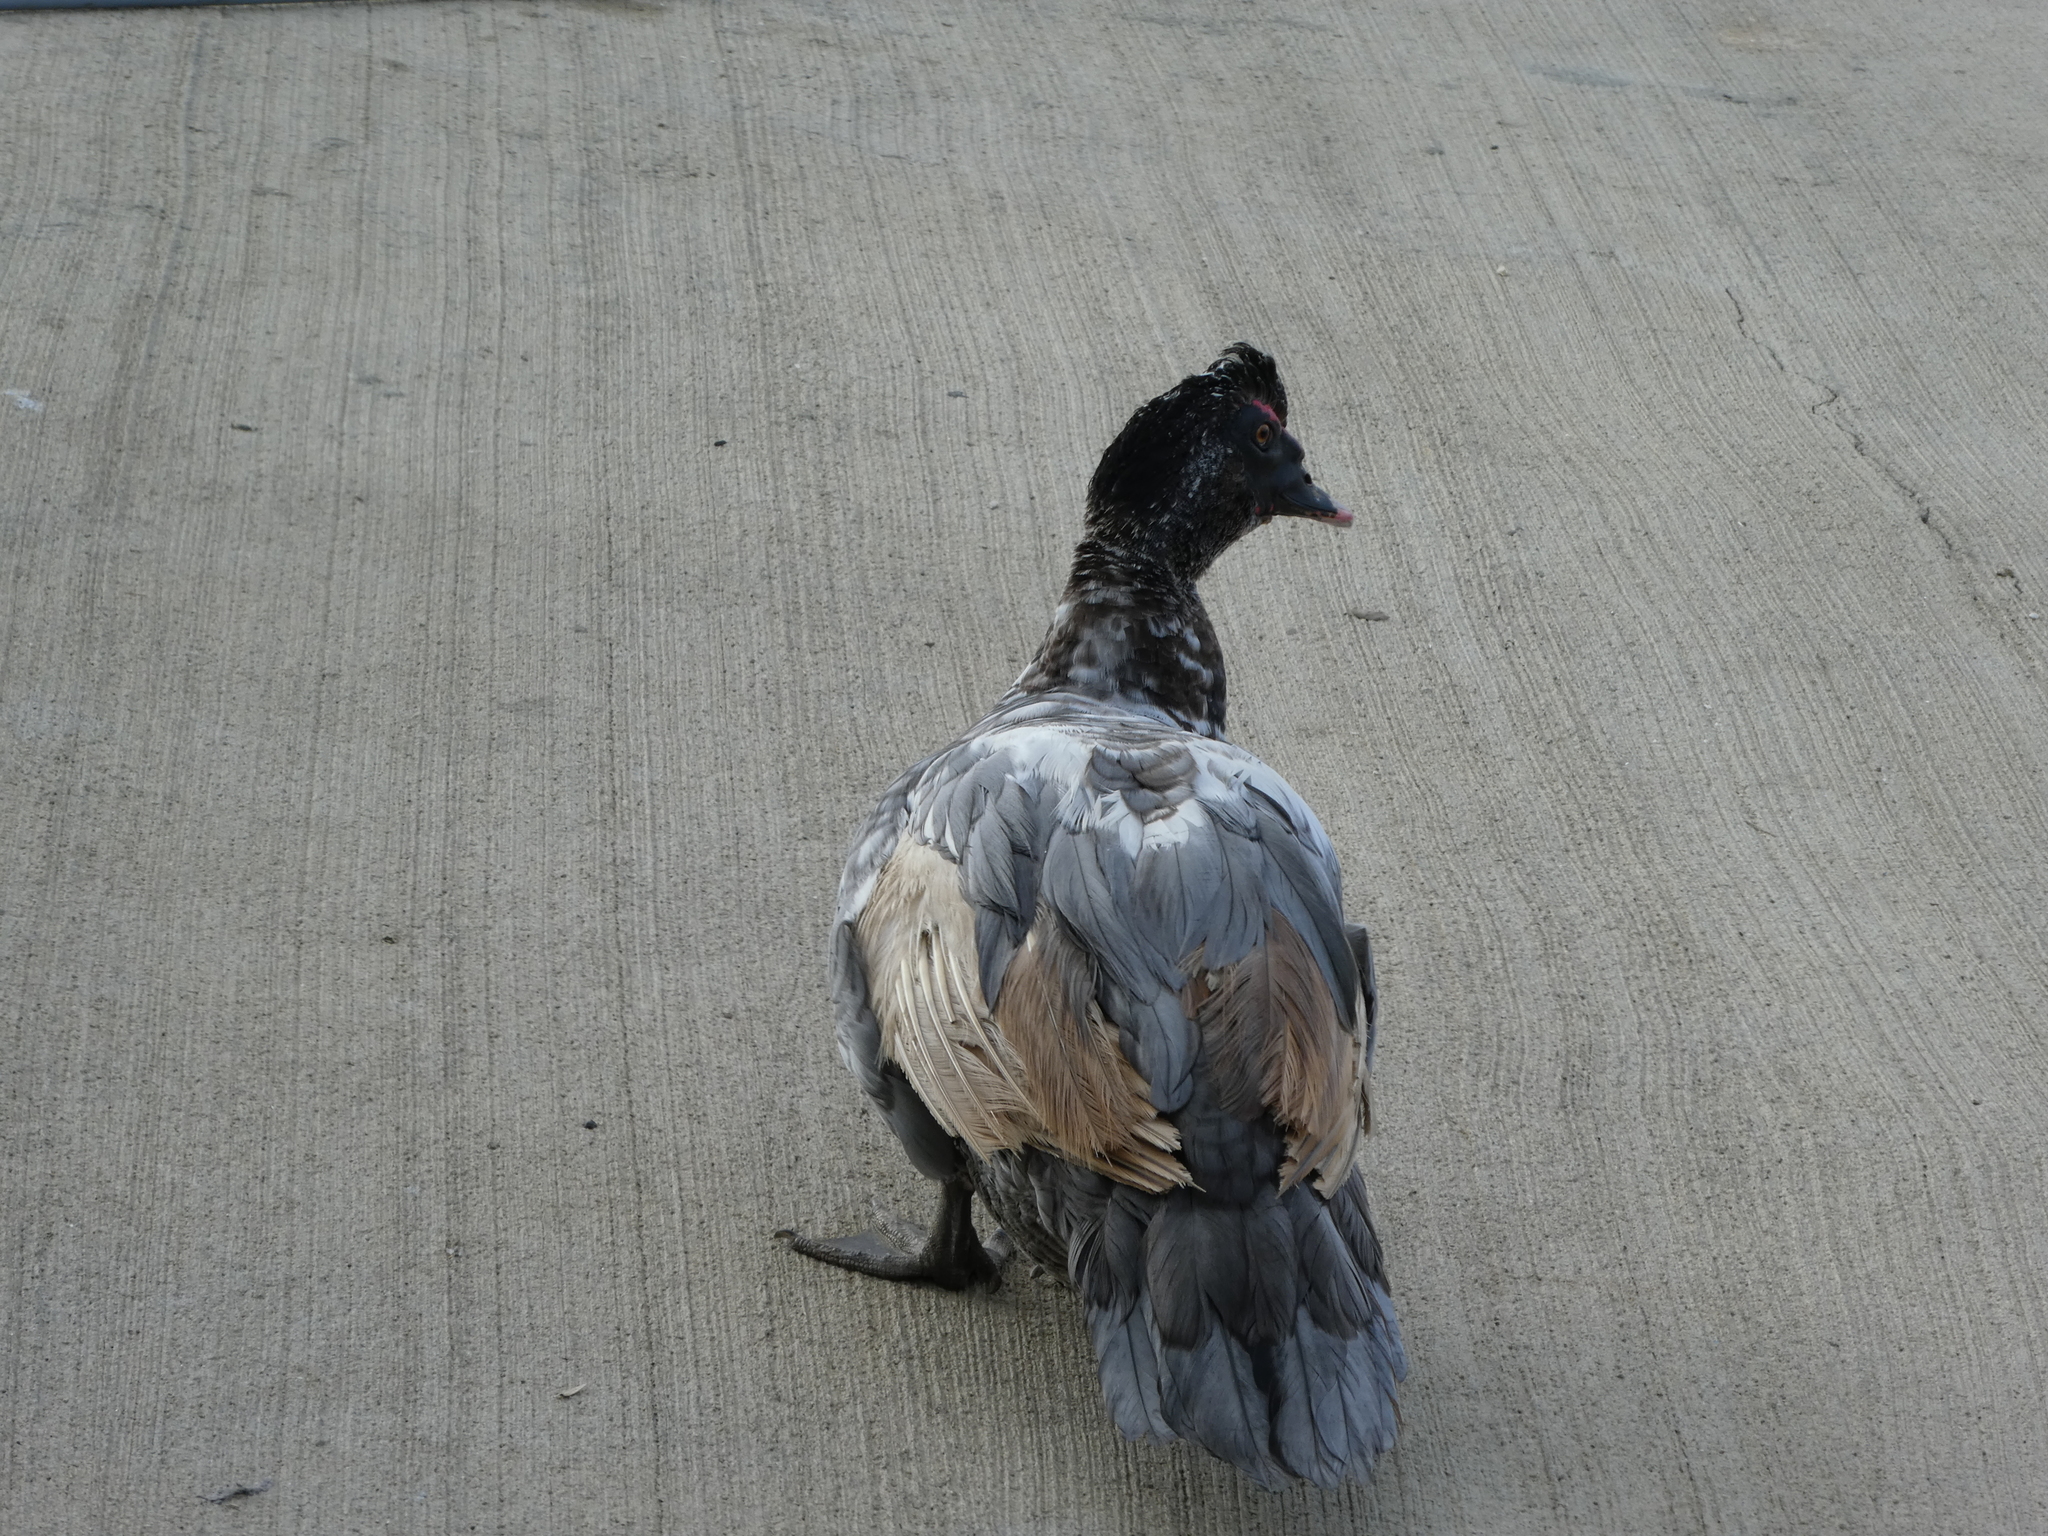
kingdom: Animalia
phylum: Chordata
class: Aves
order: Anseriformes
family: Anatidae
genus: Cairina
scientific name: Cairina moschata
